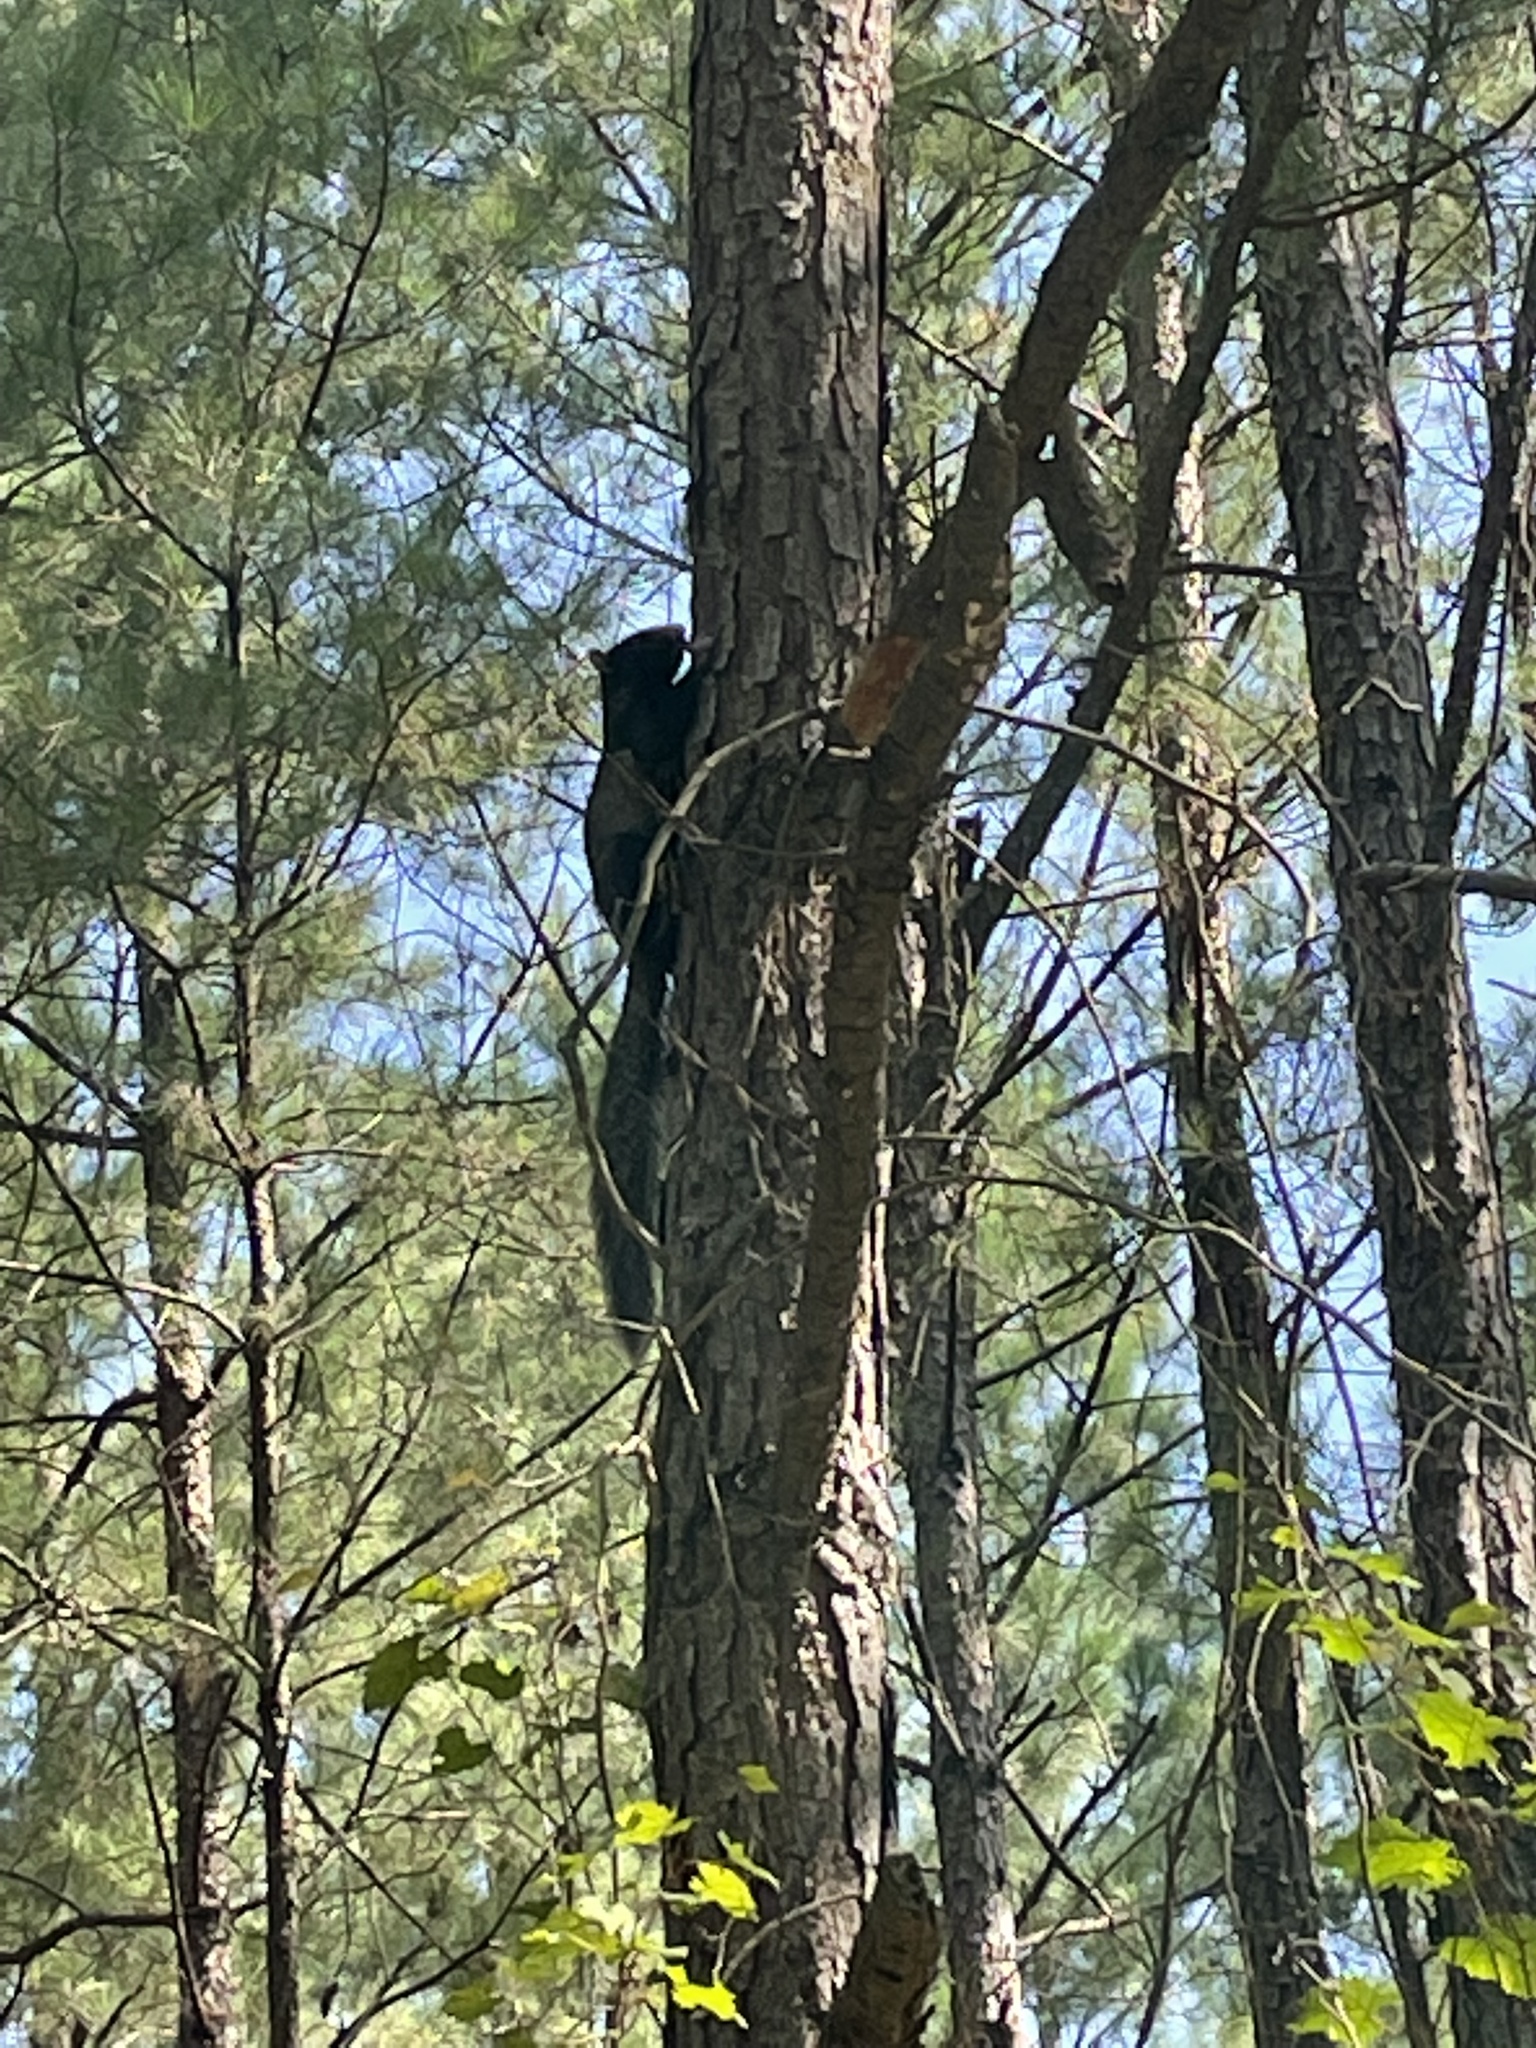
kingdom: Animalia
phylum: Chordata
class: Mammalia
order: Rodentia
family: Sciuridae
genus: Sciurus
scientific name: Sciurus niger
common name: Fox squirrel
